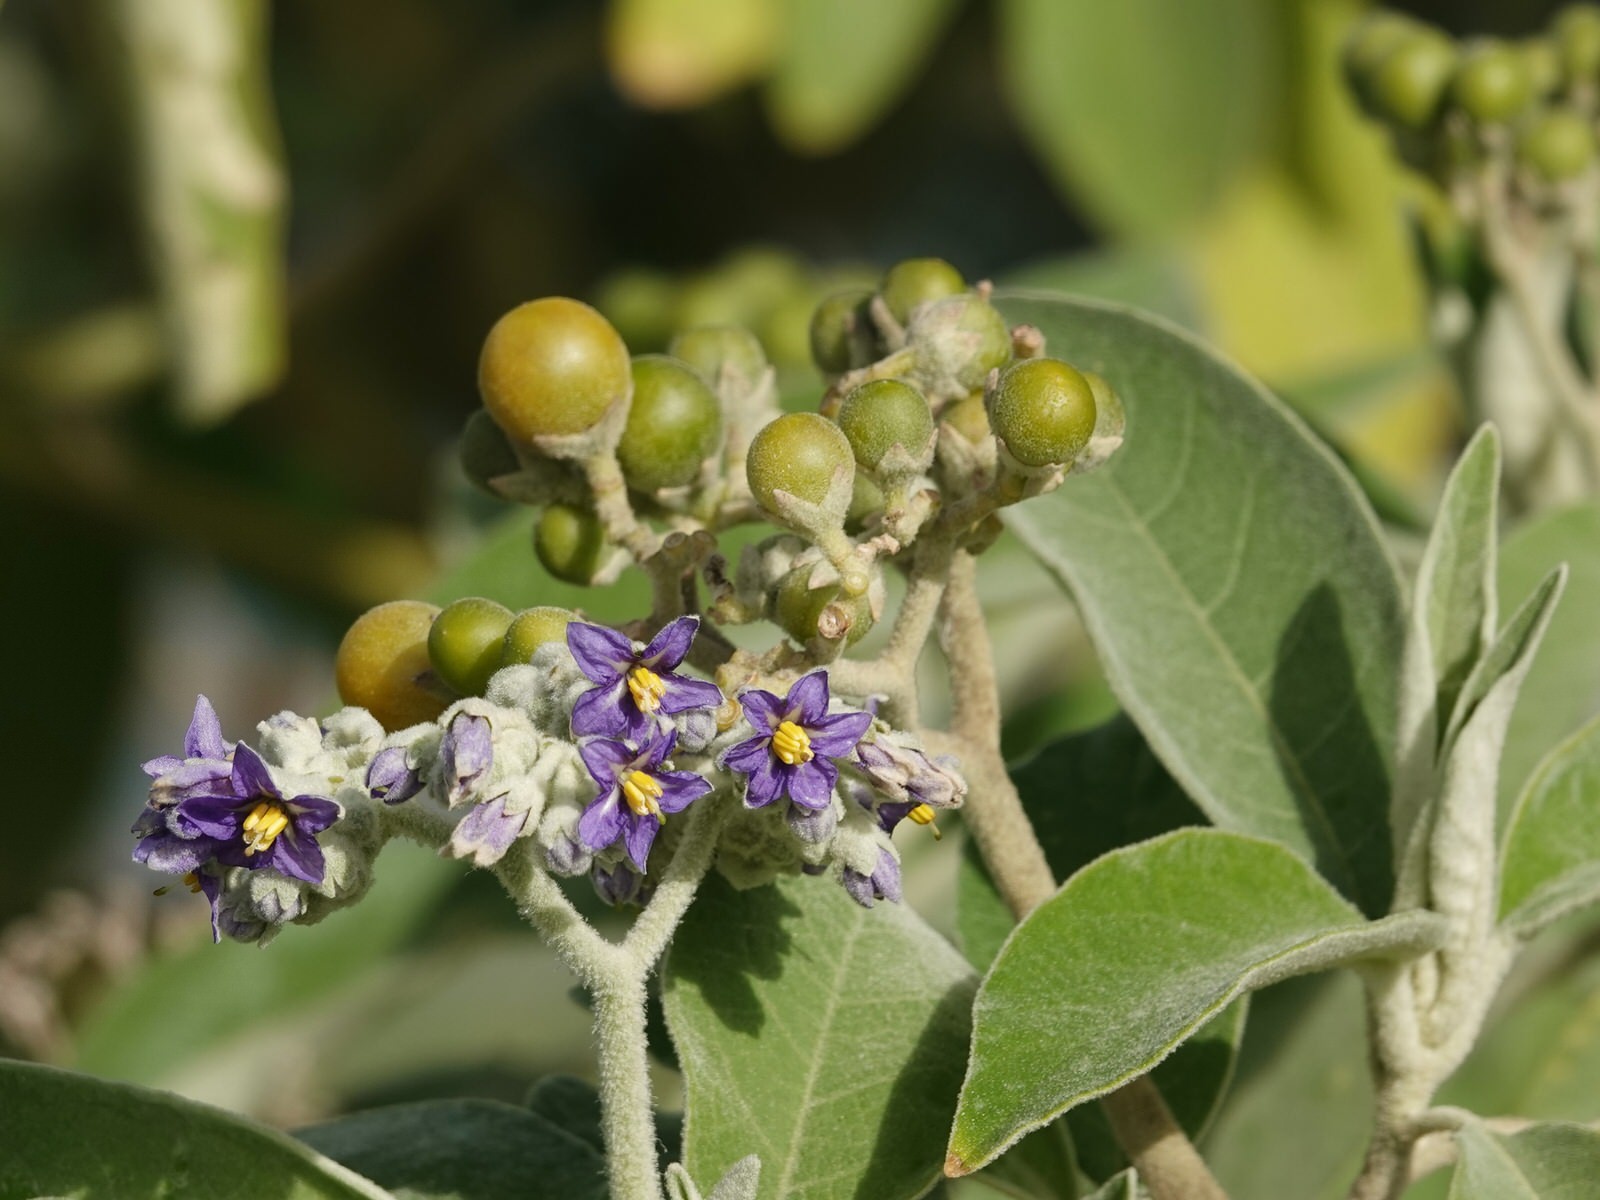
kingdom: Plantae
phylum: Tracheophyta
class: Magnoliopsida
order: Solanales
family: Solanaceae
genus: Solanum
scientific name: Solanum mauritianum
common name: Earleaf nightshade
